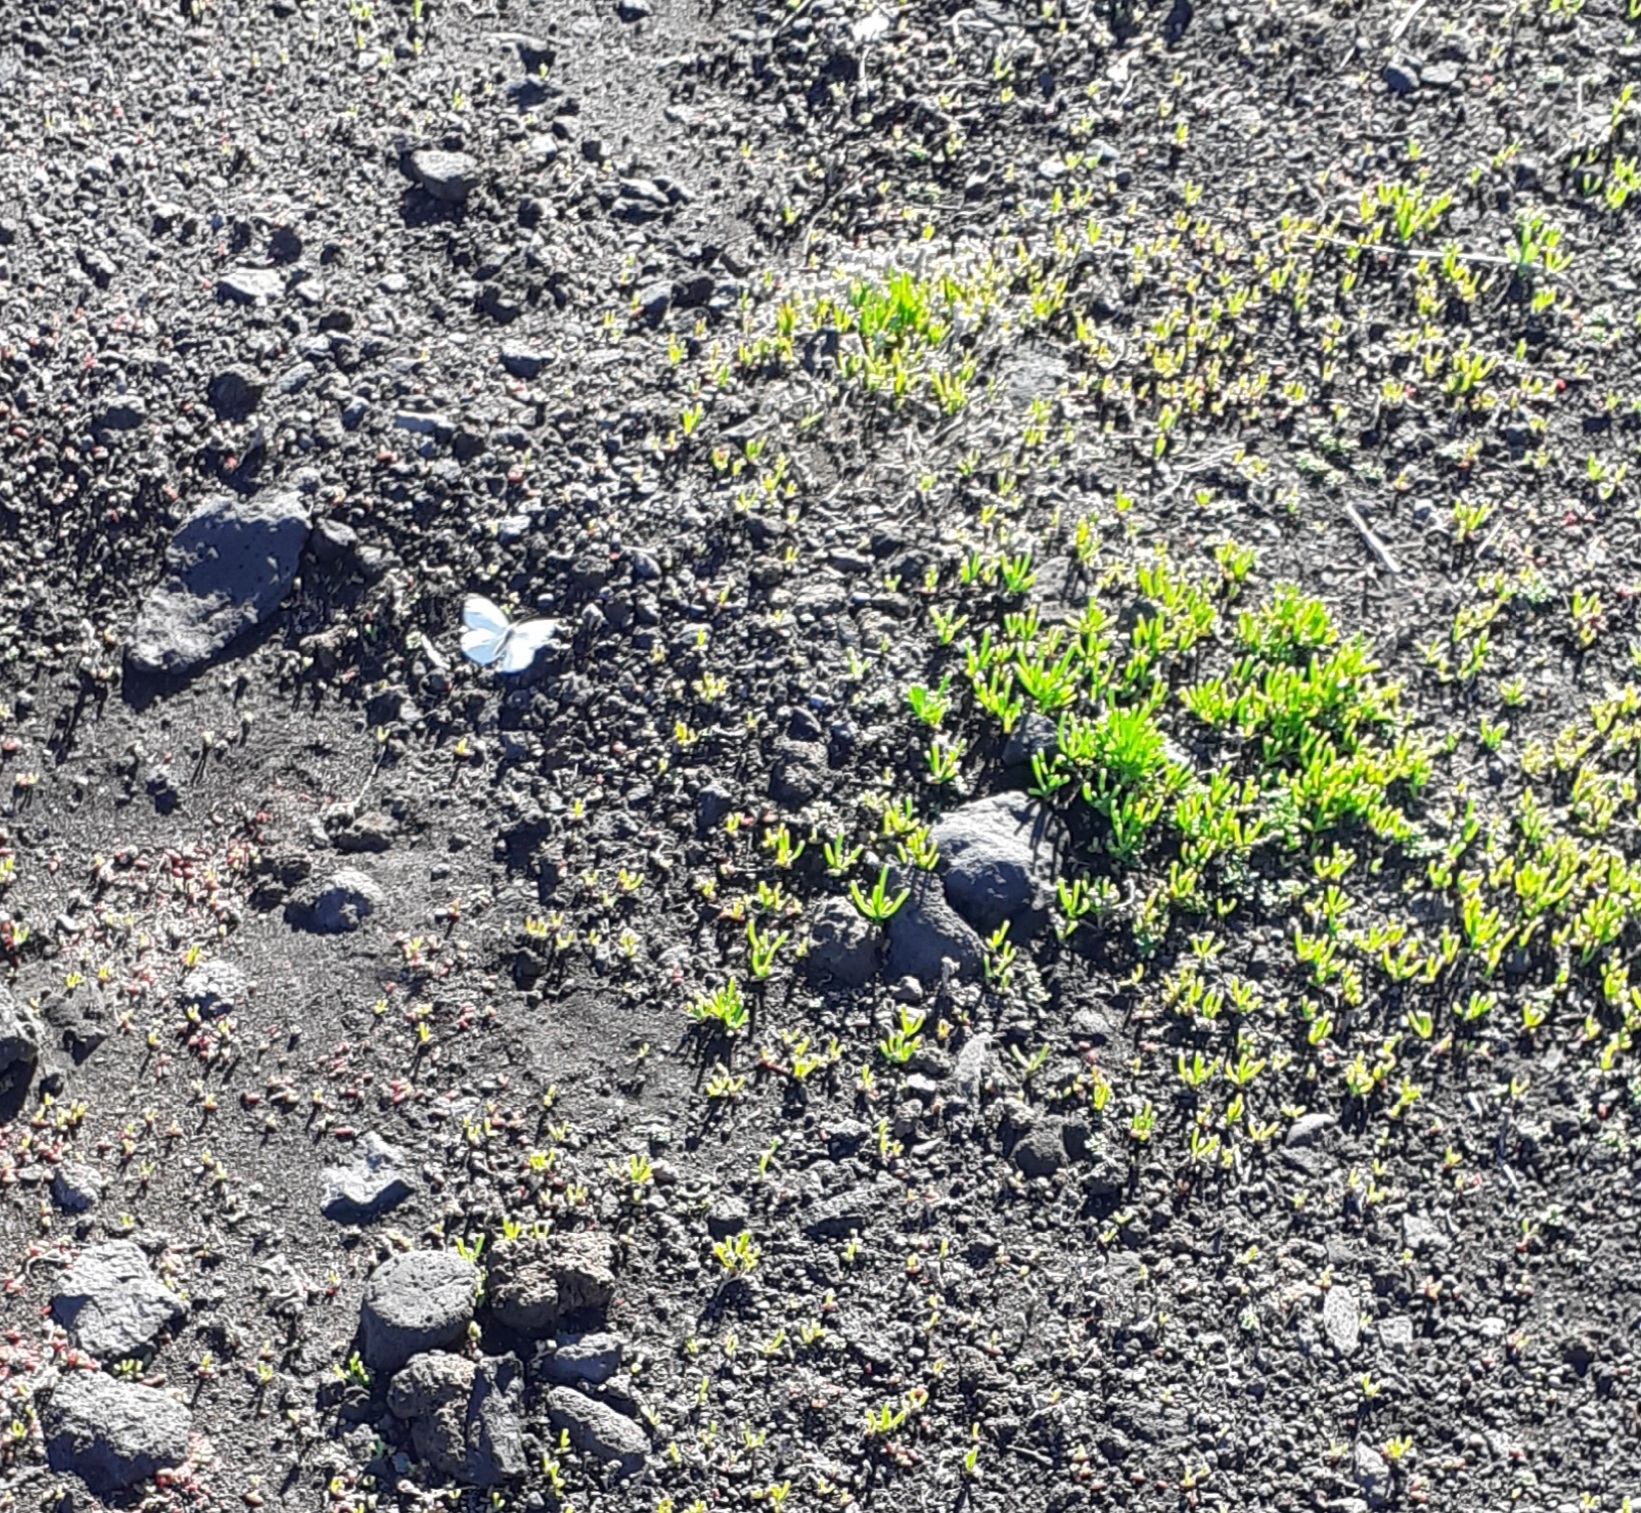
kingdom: Animalia
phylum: Arthropoda
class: Insecta
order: Lepidoptera
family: Pieridae
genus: Pieris
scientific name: Pieris rapae
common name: Small white
